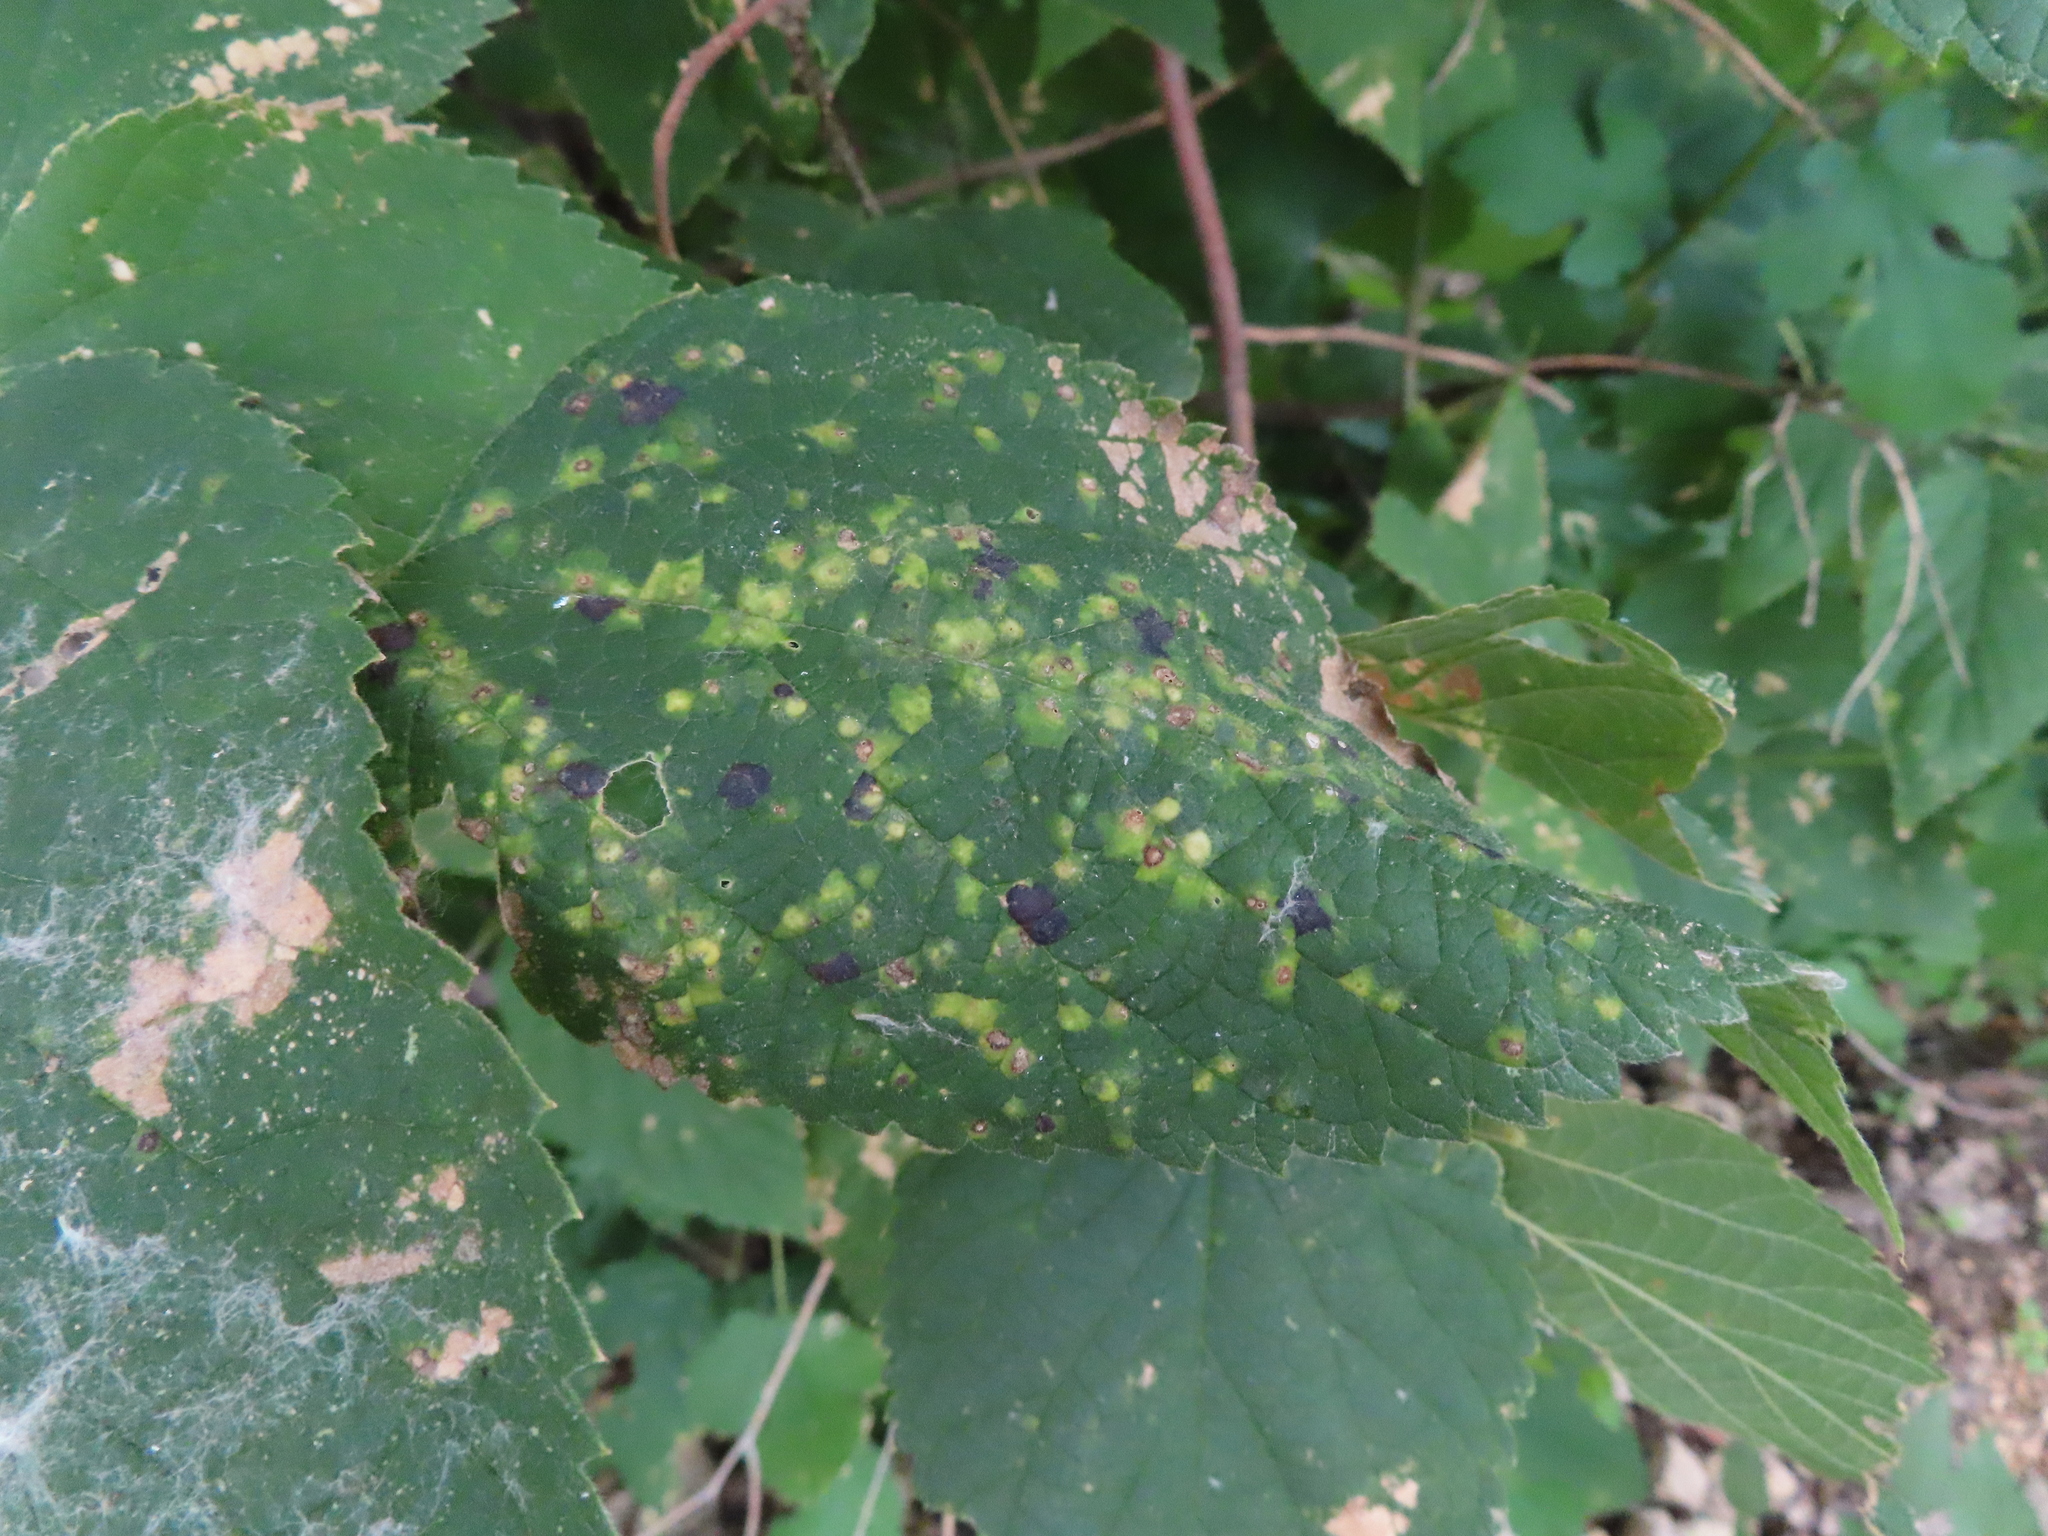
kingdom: Animalia
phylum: Arthropoda
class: Insecta
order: Hemiptera
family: Aphalaridae
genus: Pachypsylla
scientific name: Pachypsylla celtidisvesicula
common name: Hackberry blister gall psyllid
